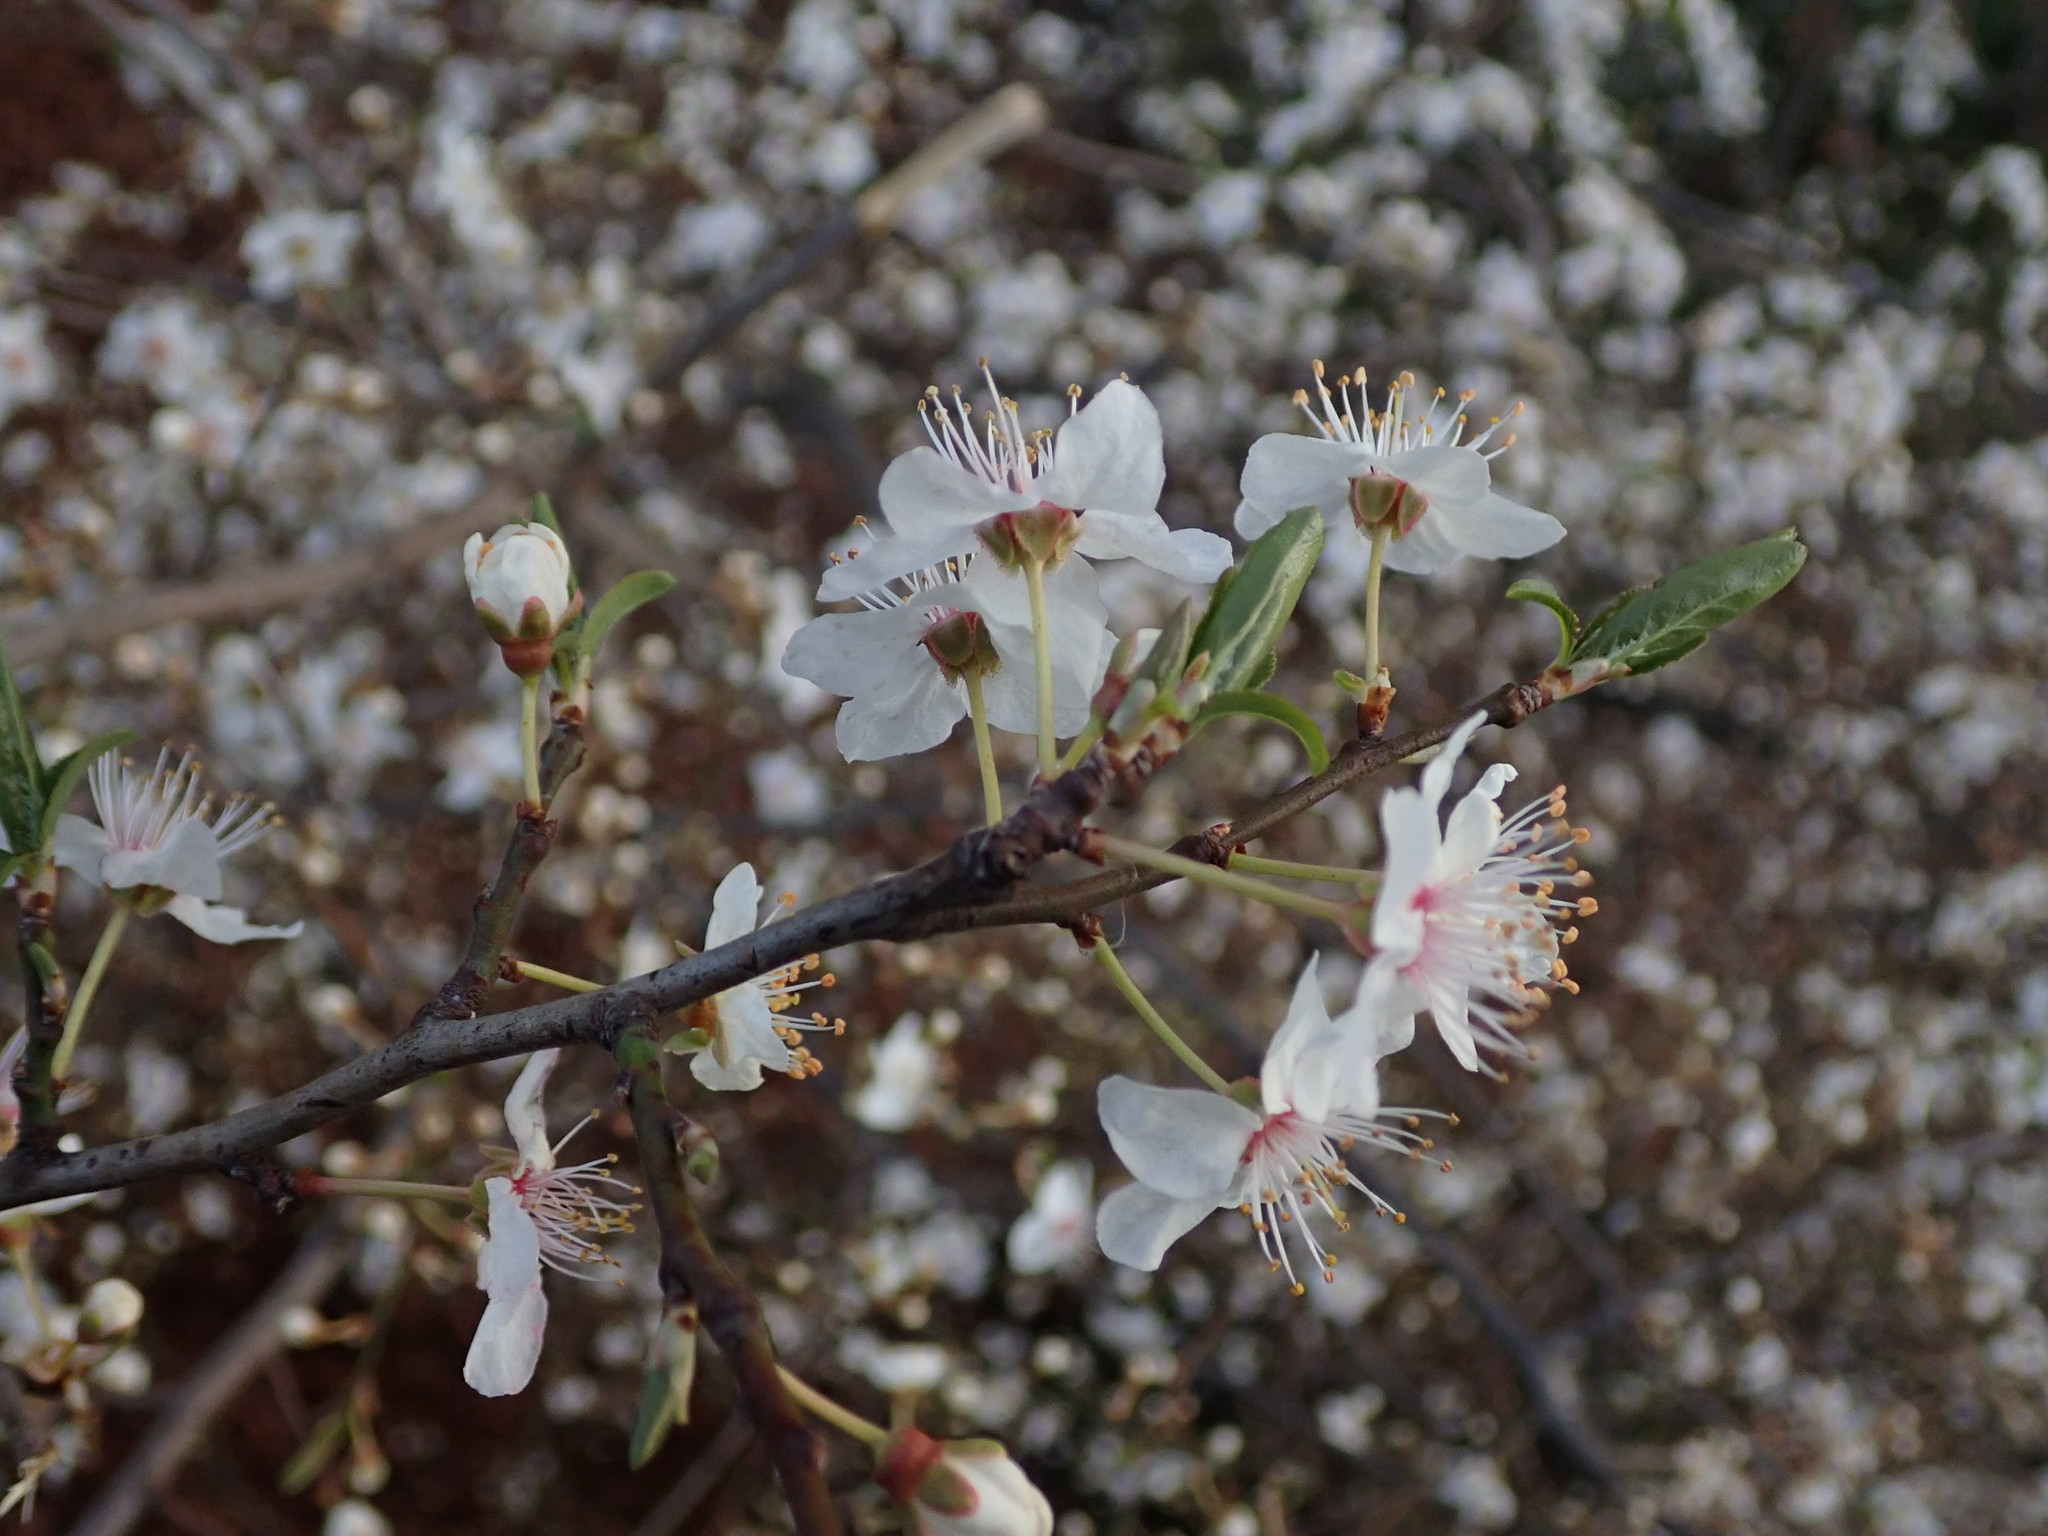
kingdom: Plantae
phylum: Tracheophyta
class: Magnoliopsida
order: Rosales
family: Rosaceae
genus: Prunus
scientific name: Prunus cerasifera
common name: Cherry plum
